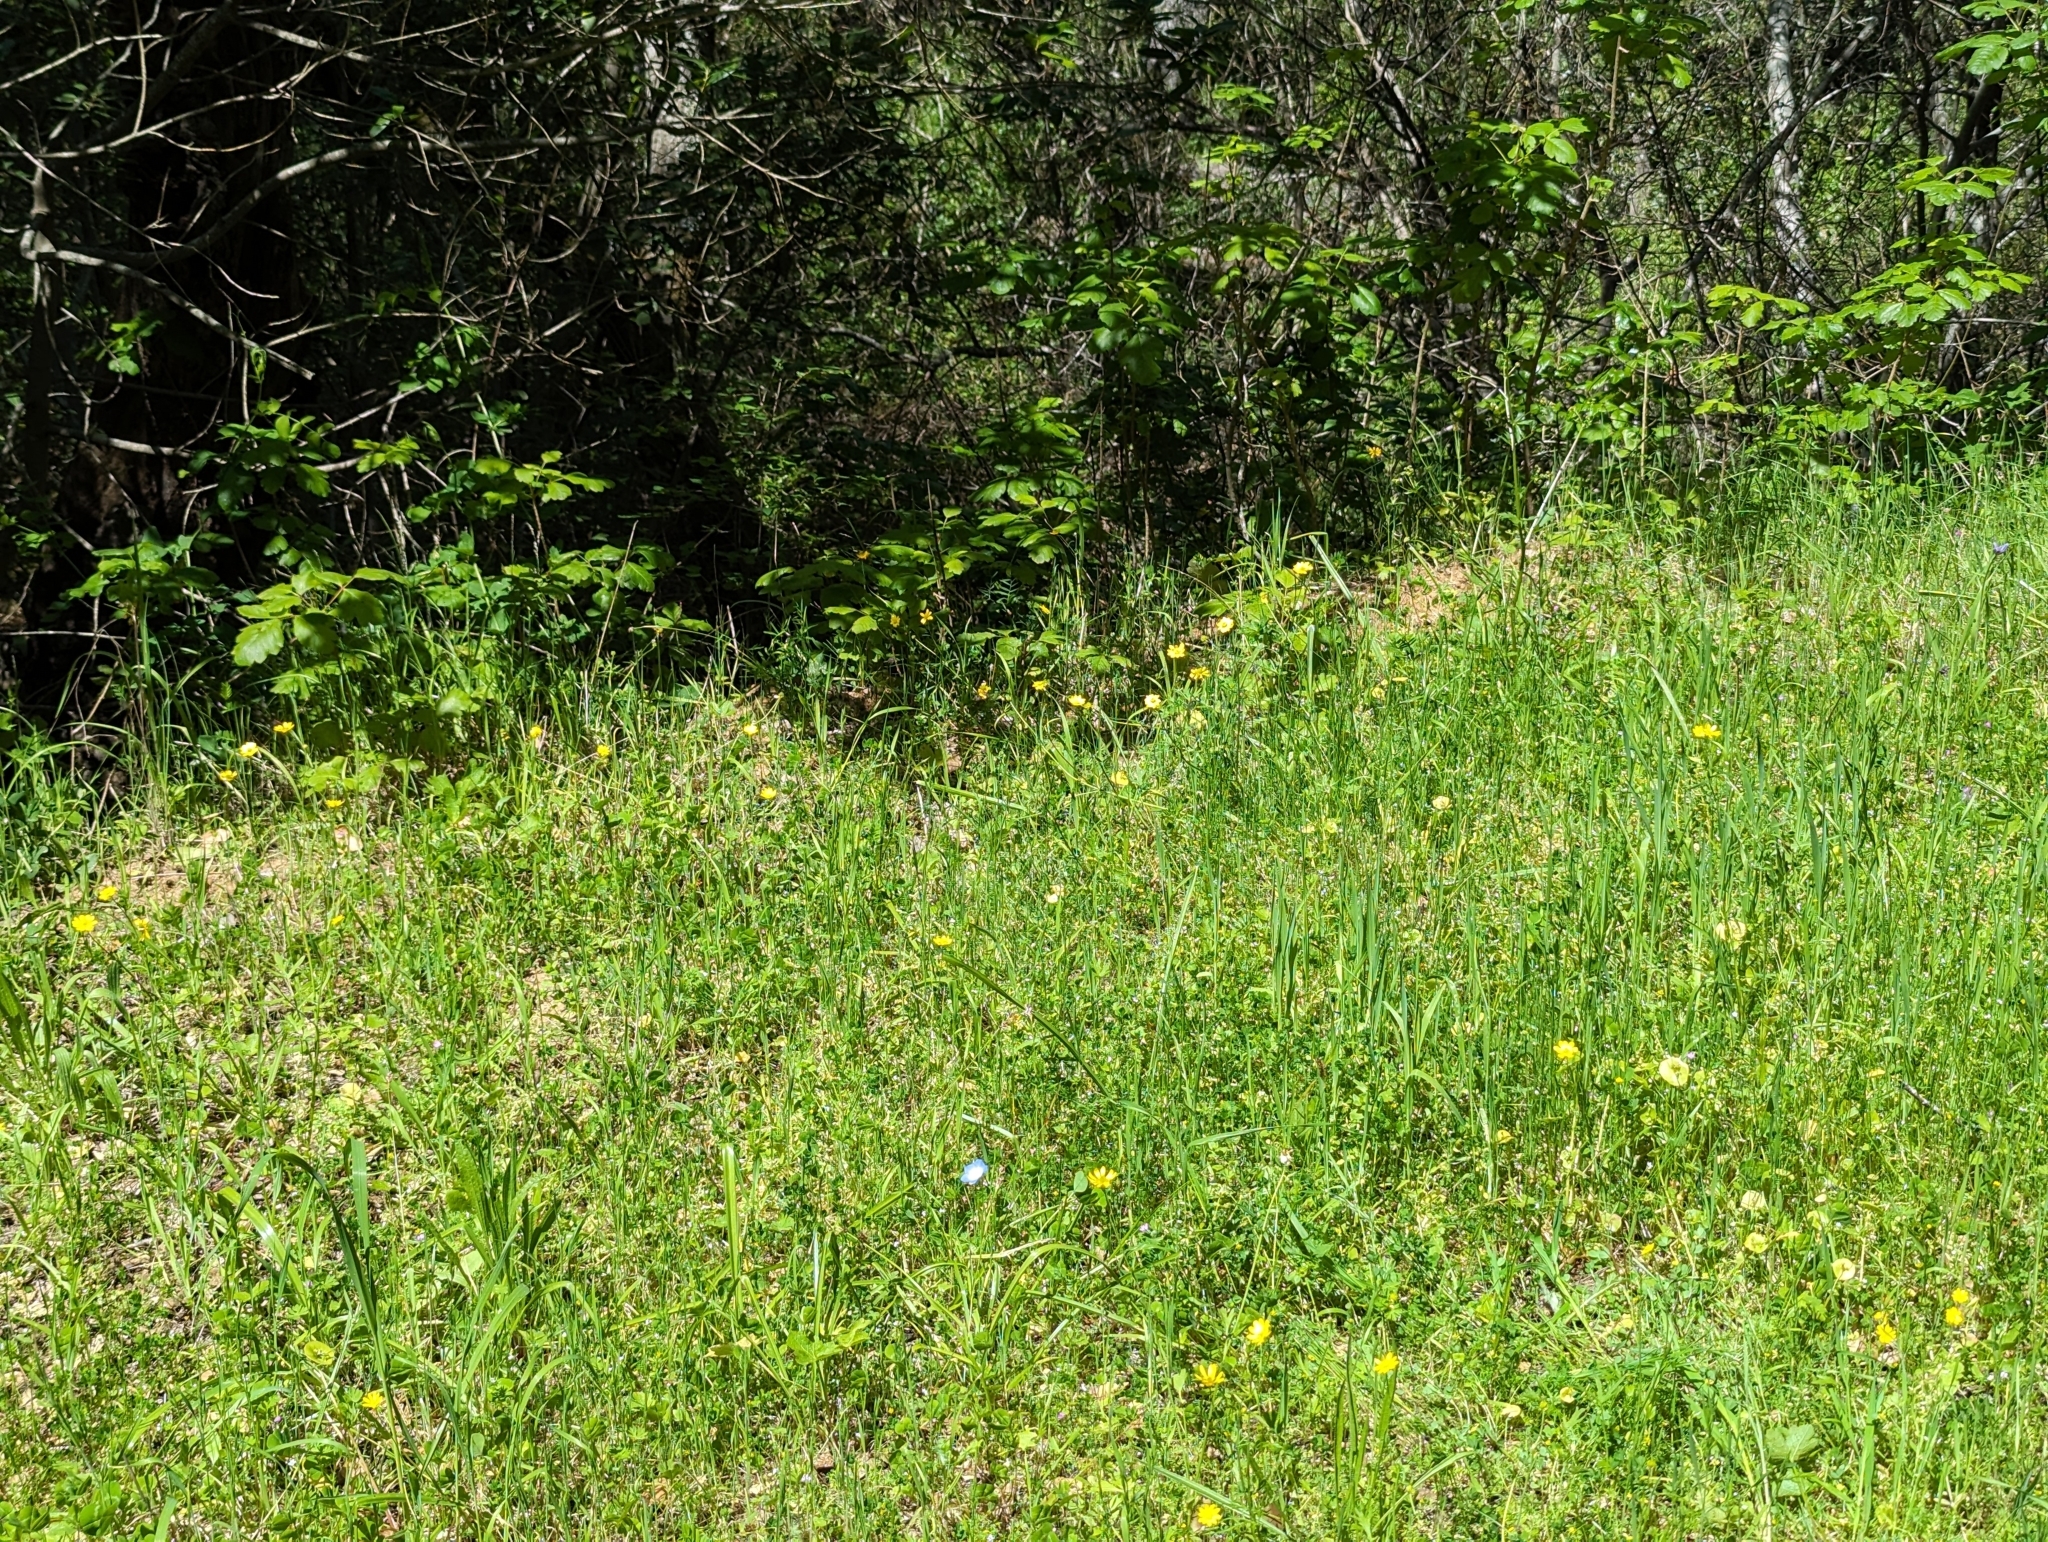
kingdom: Plantae
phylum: Tracheophyta
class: Magnoliopsida
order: Boraginales
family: Hydrophyllaceae
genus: Nemophila
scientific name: Nemophila menziesii
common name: Baby's-blue-eyes
